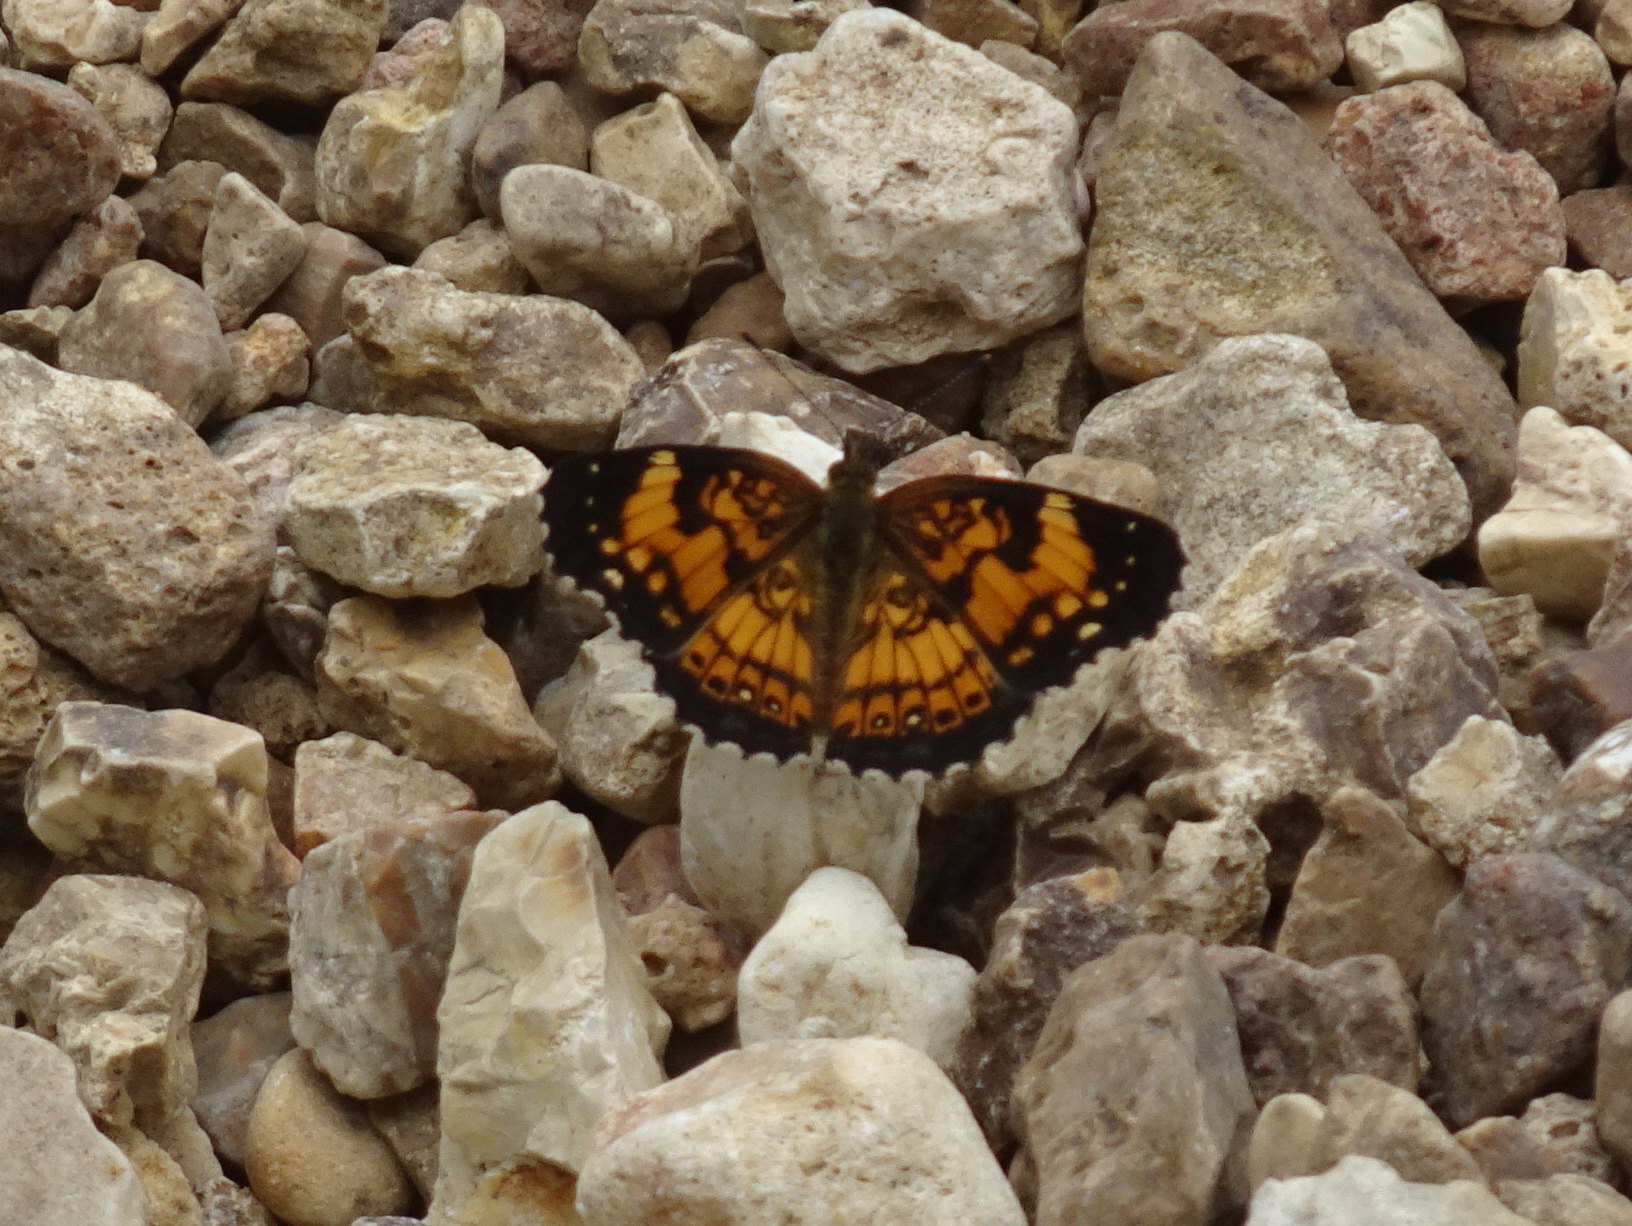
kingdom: Animalia
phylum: Arthropoda
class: Insecta
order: Lepidoptera
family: Nymphalidae
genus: Chlosyne
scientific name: Chlosyne nycteis
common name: Silvery checkerspot
